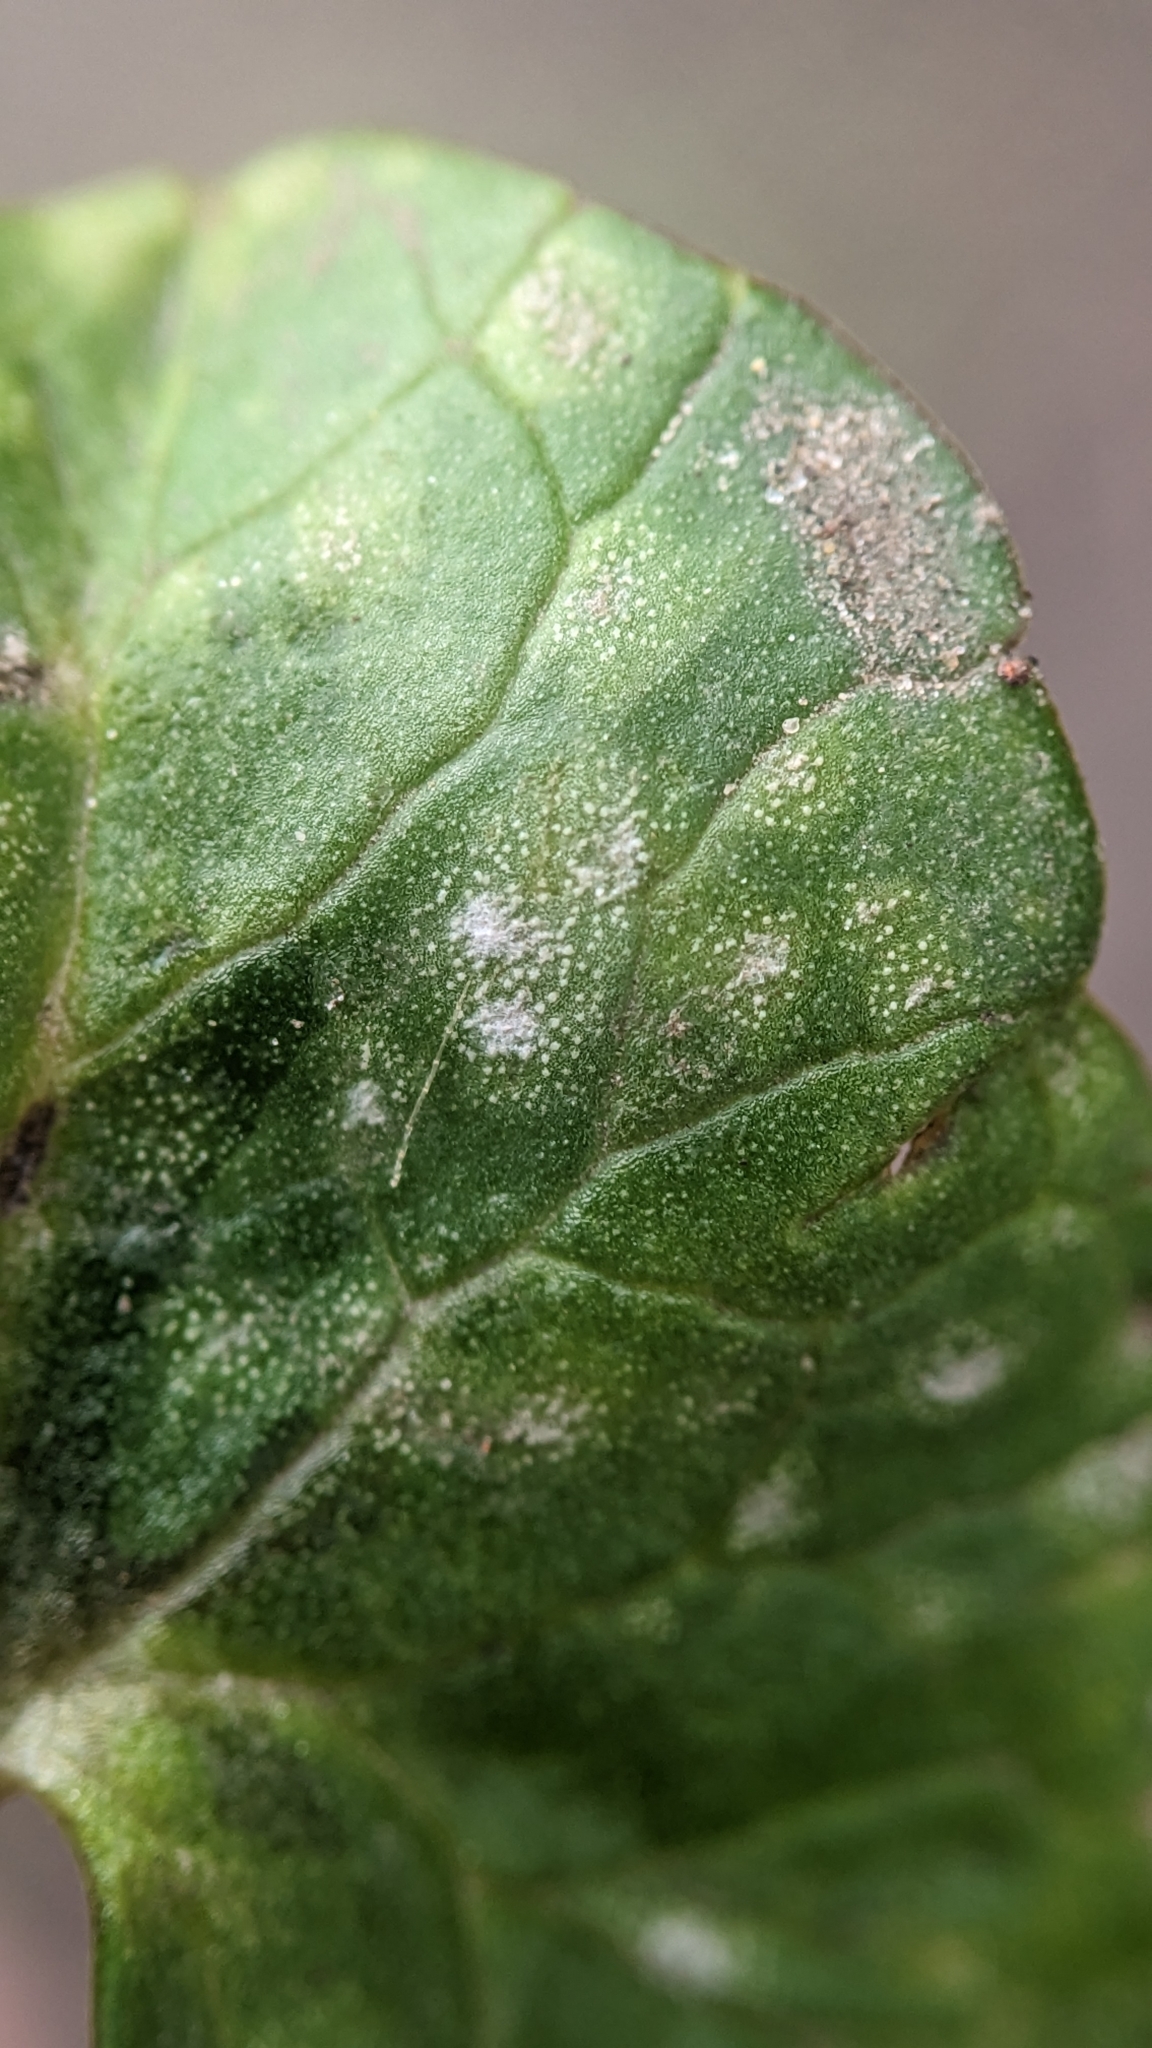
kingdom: Fungi
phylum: Basidiomycota
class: Exobasidiomycetes
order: Entylomatales
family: Entylomataceae
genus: Entyloma
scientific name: Entyloma ficariae
